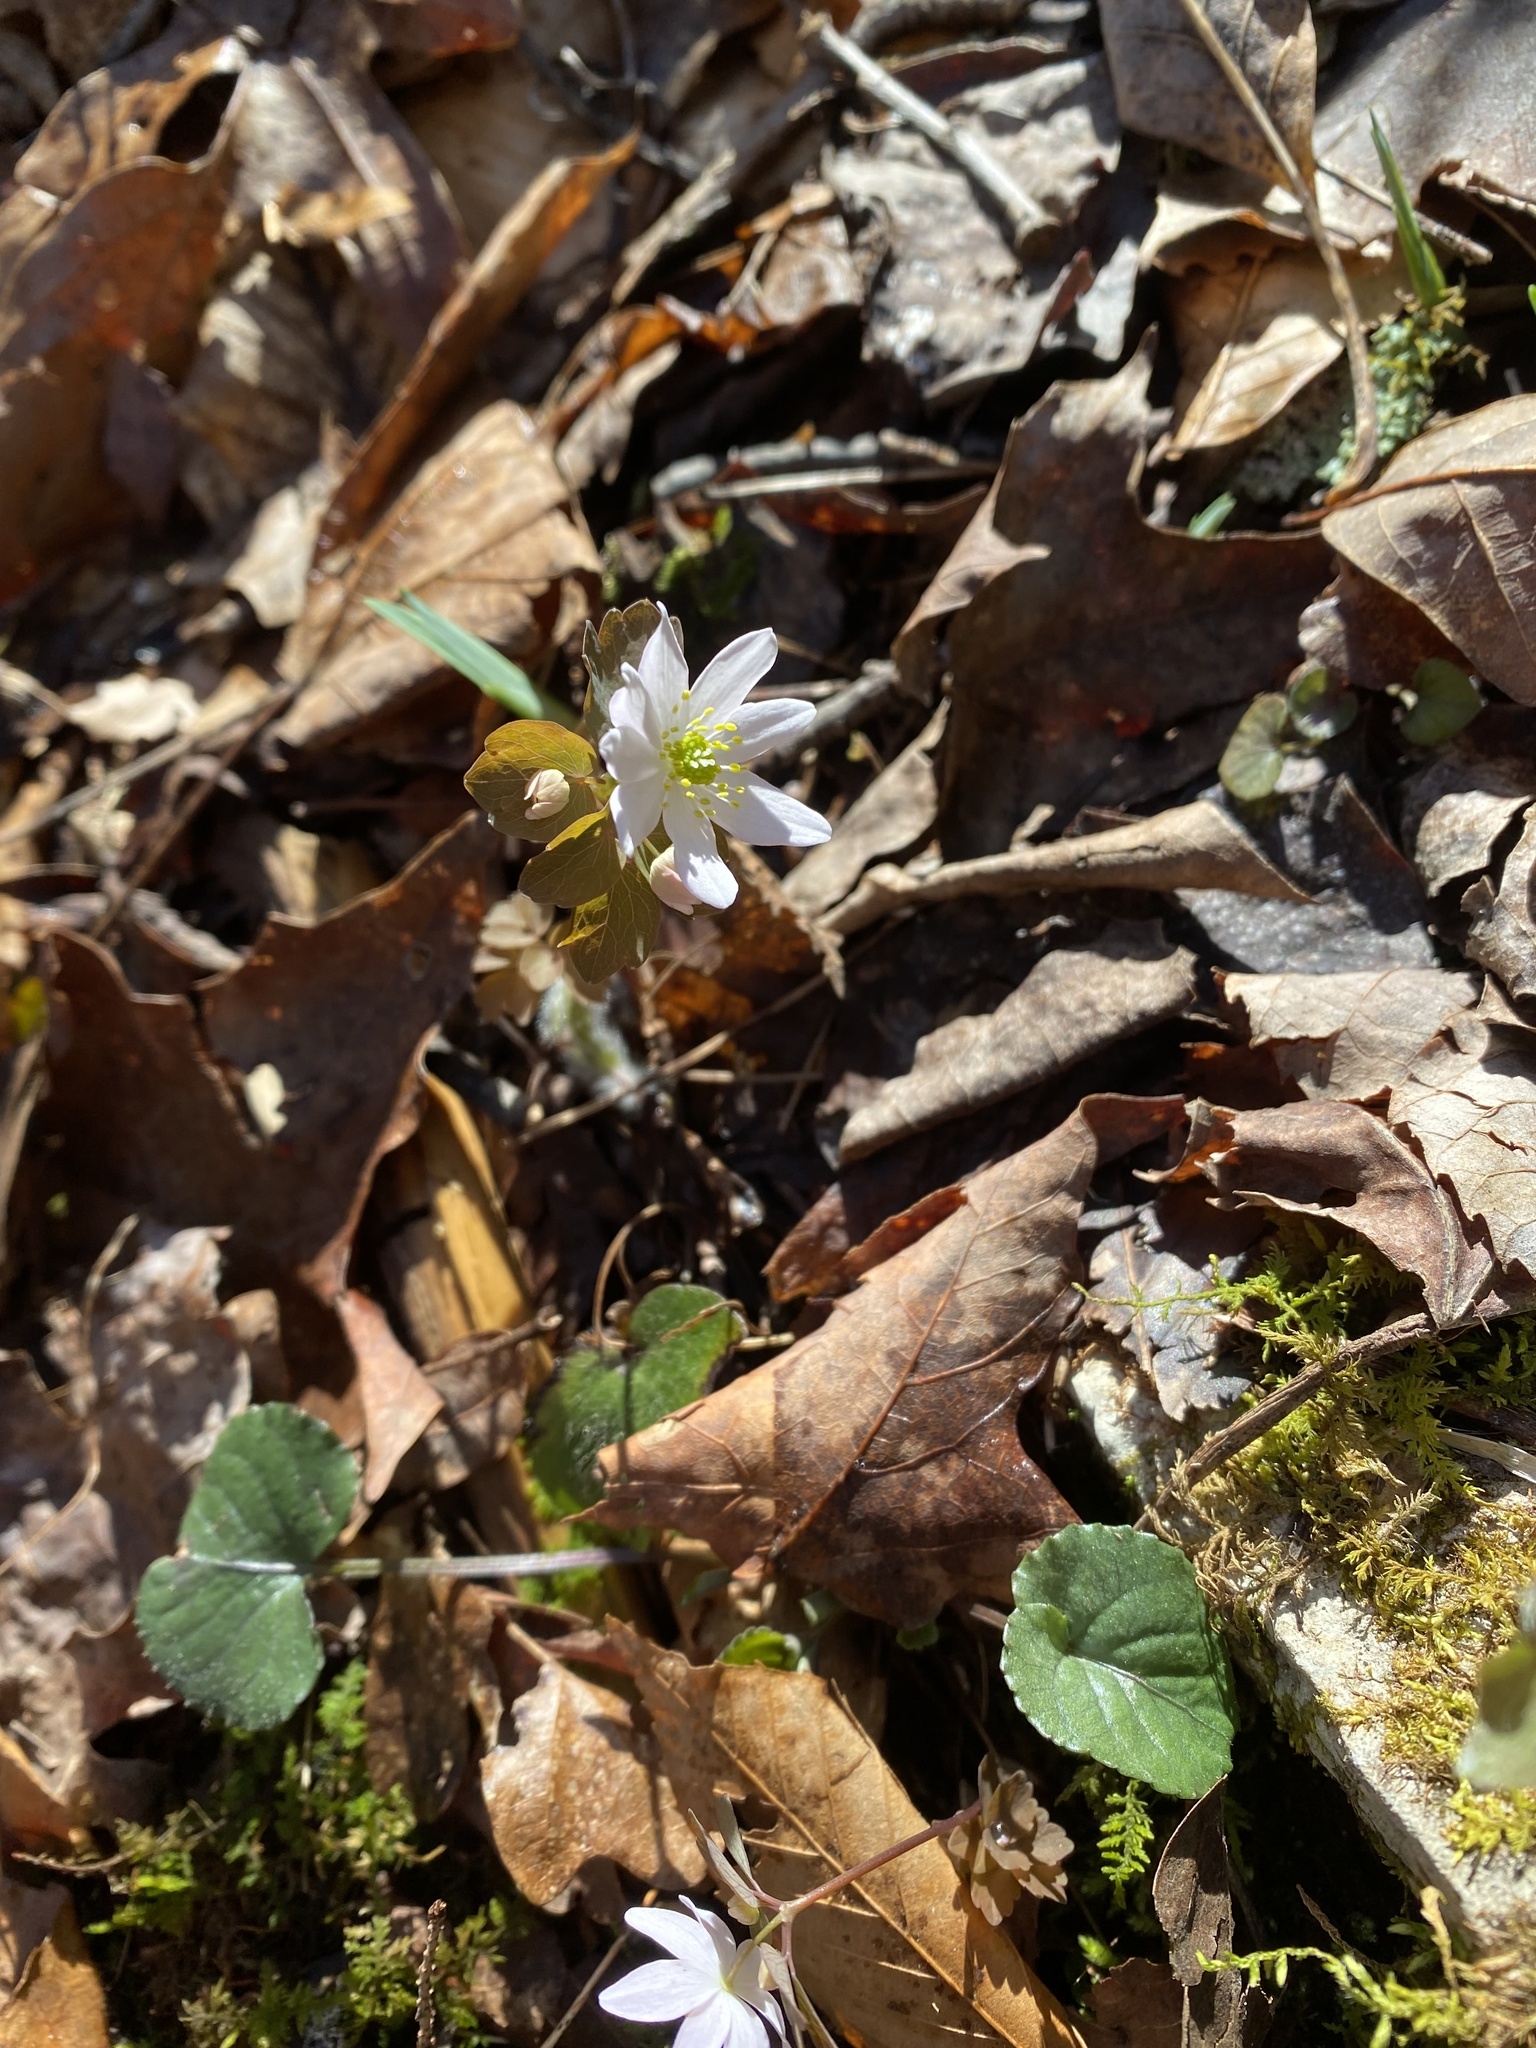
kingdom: Plantae
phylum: Tracheophyta
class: Magnoliopsida
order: Ranunculales
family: Ranunculaceae
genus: Thalictrum
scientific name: Thalictrum thalictroides
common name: Rue-anemone
